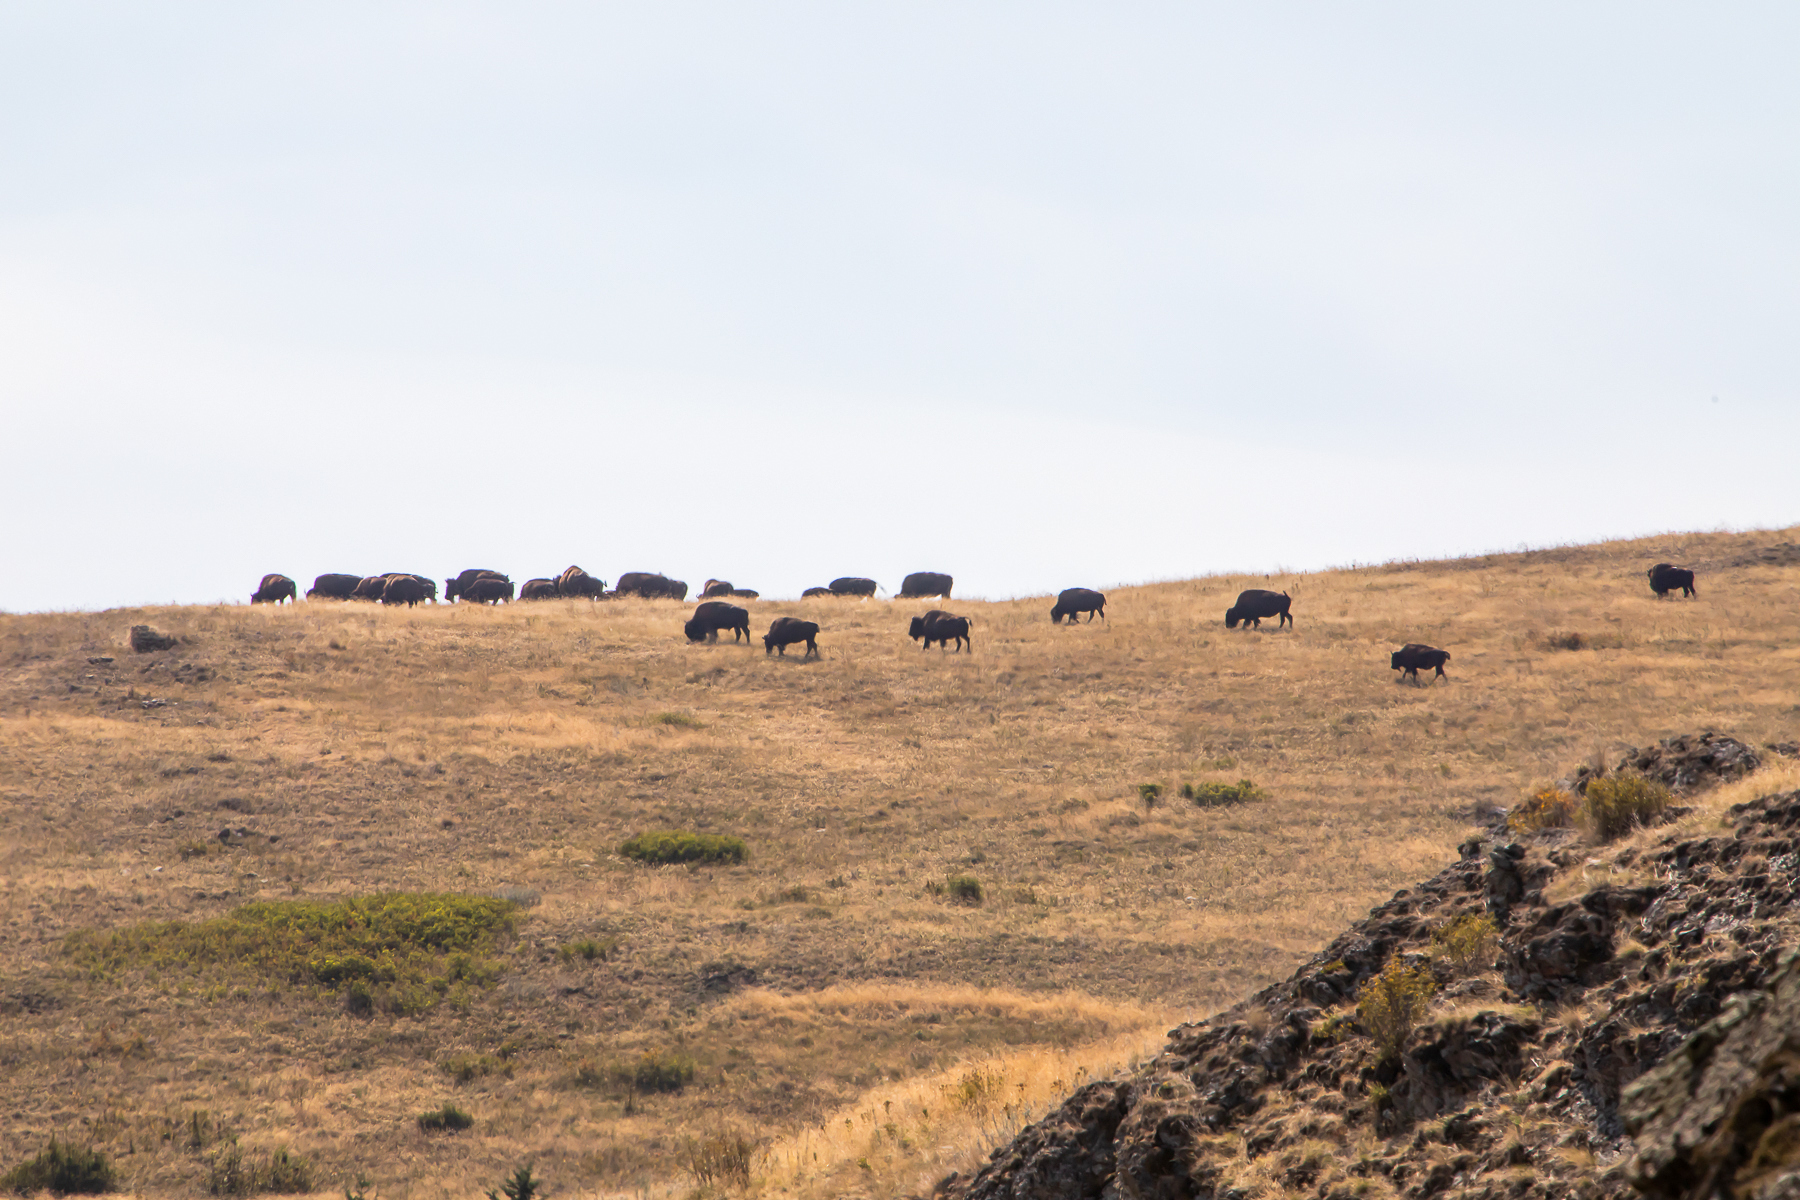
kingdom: Animalia
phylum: Chordata
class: Mammalia
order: Artiodactyla
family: Bovidae
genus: Bison
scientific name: Bison bison
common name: American bison
